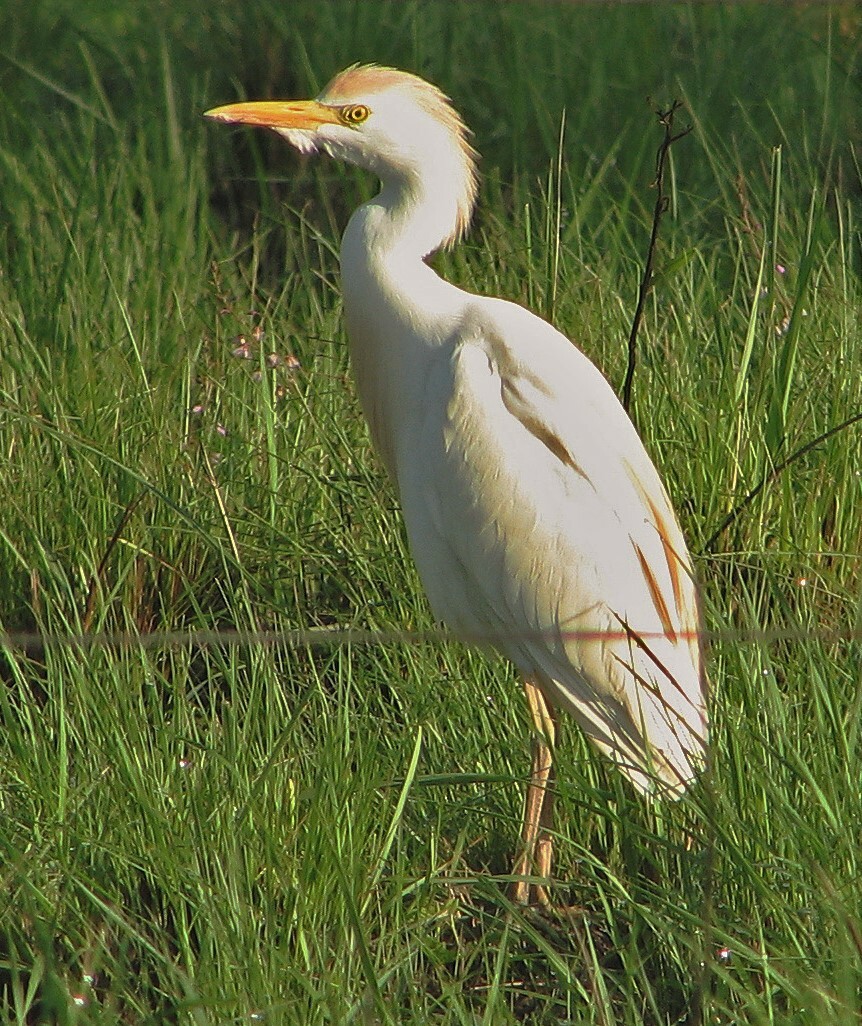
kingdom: Animalia
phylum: Chordata
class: Aves
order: Pelecaniformes
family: Ardeidae
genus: Bubulcus
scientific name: Bubulcus ibis
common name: Cattle egret
